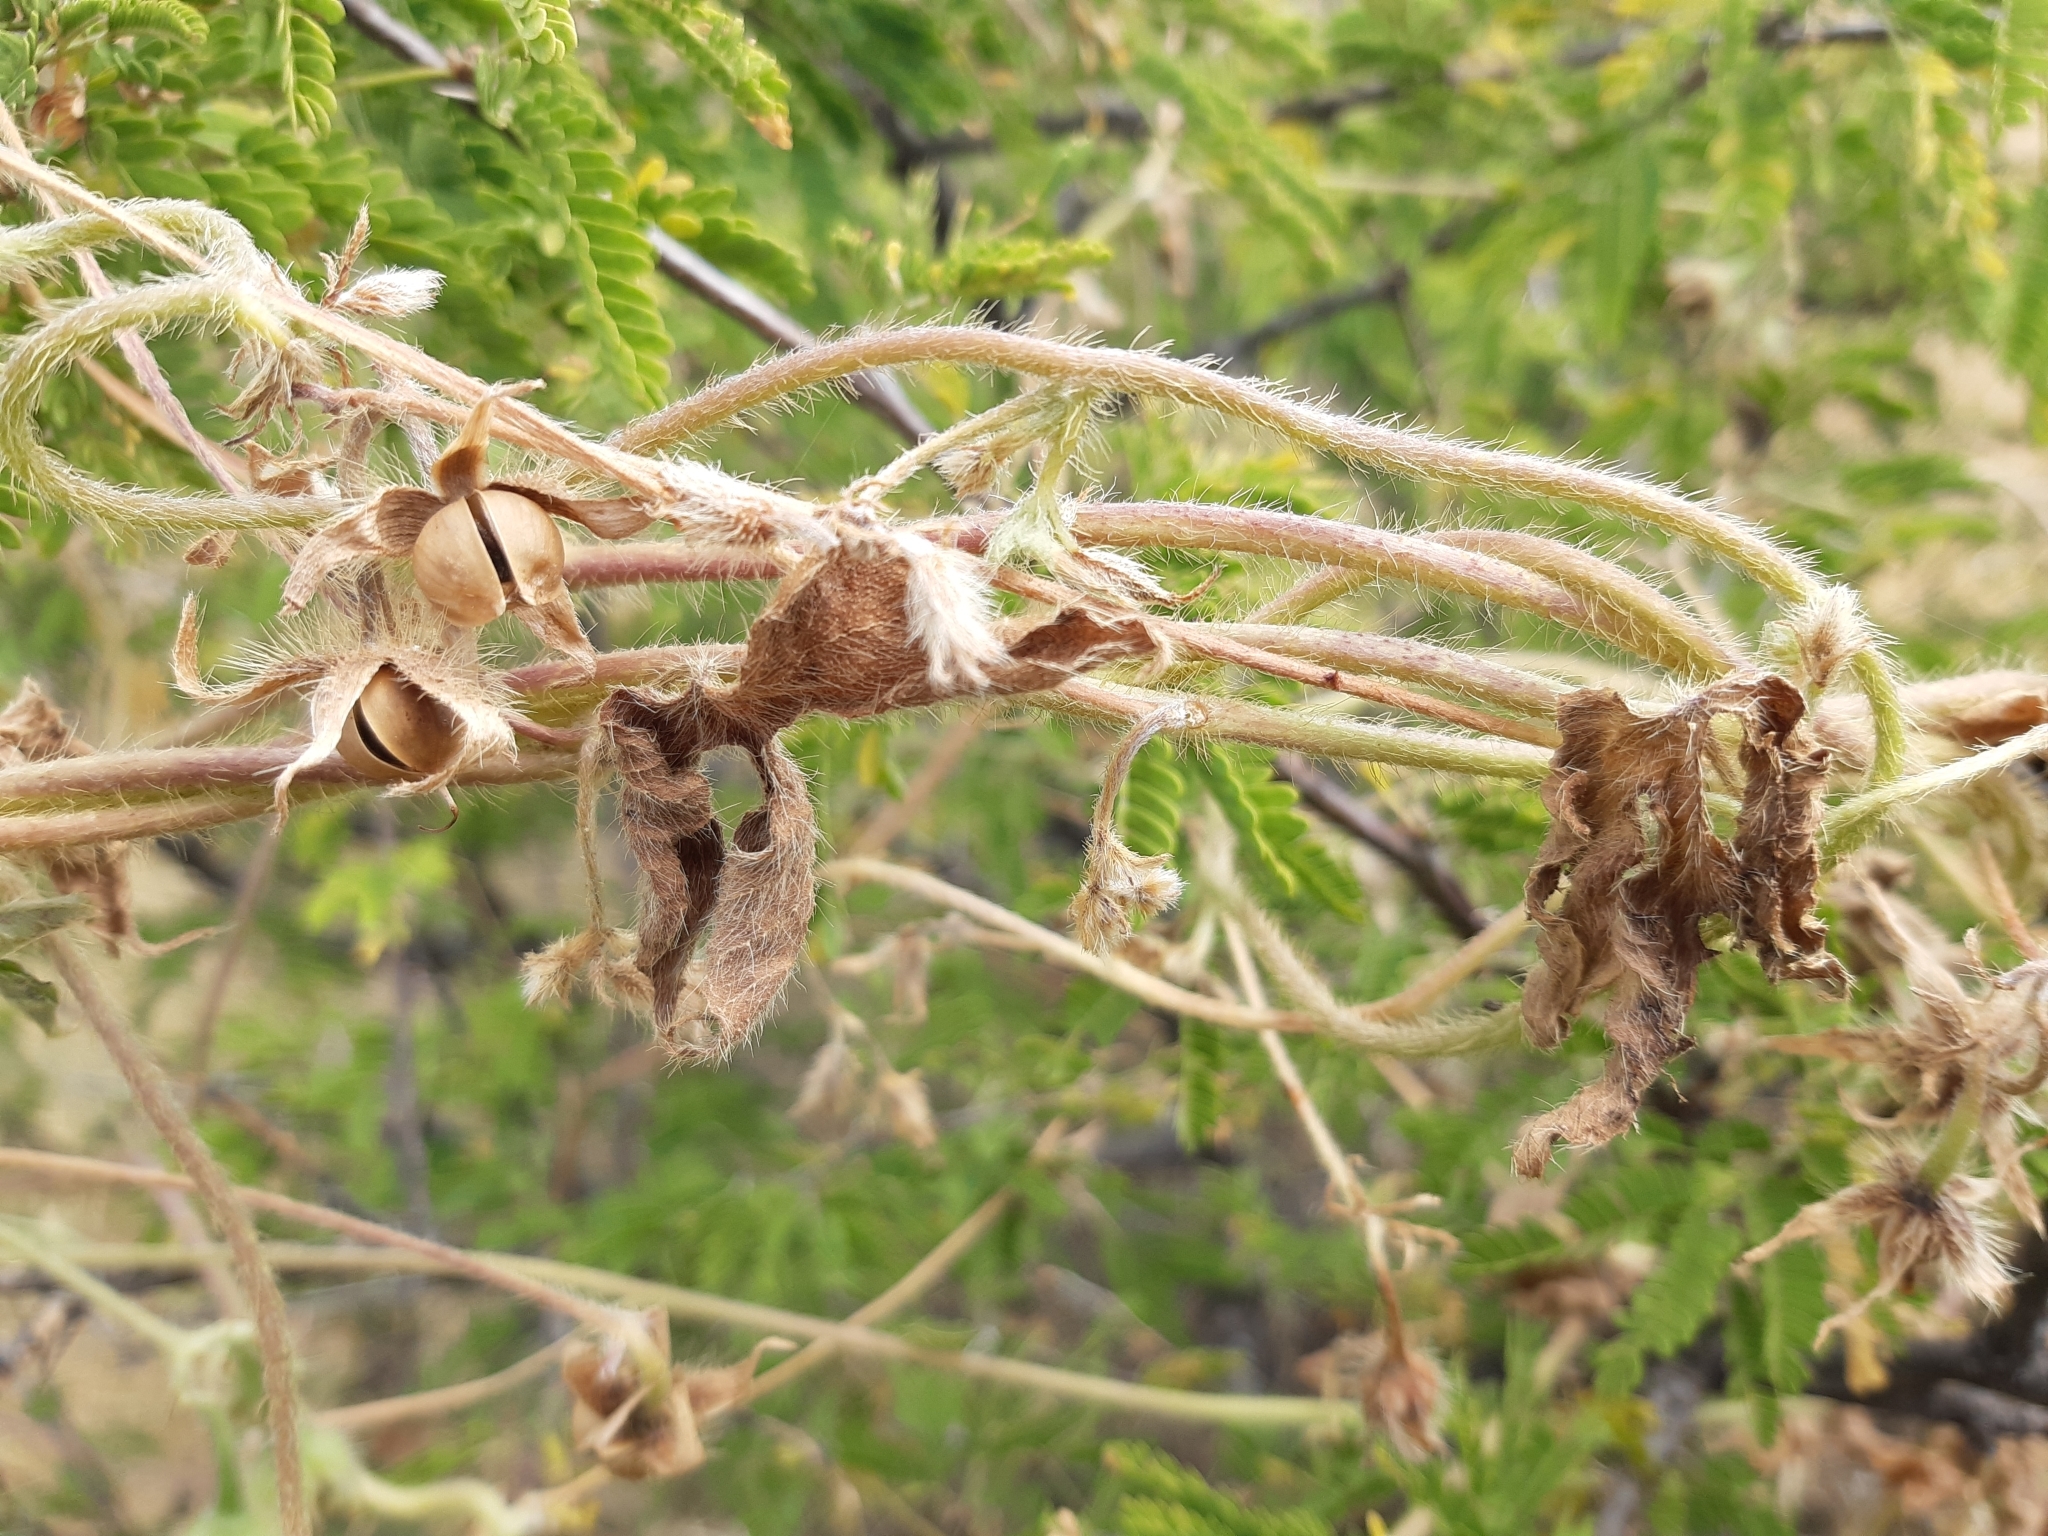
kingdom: Plantae
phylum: Tracheophyta
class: Magnoliopsida
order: Solanales
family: Convolvulaceae
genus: Ipomoea
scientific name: Ipomoea purpurea
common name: Common morning-glory
